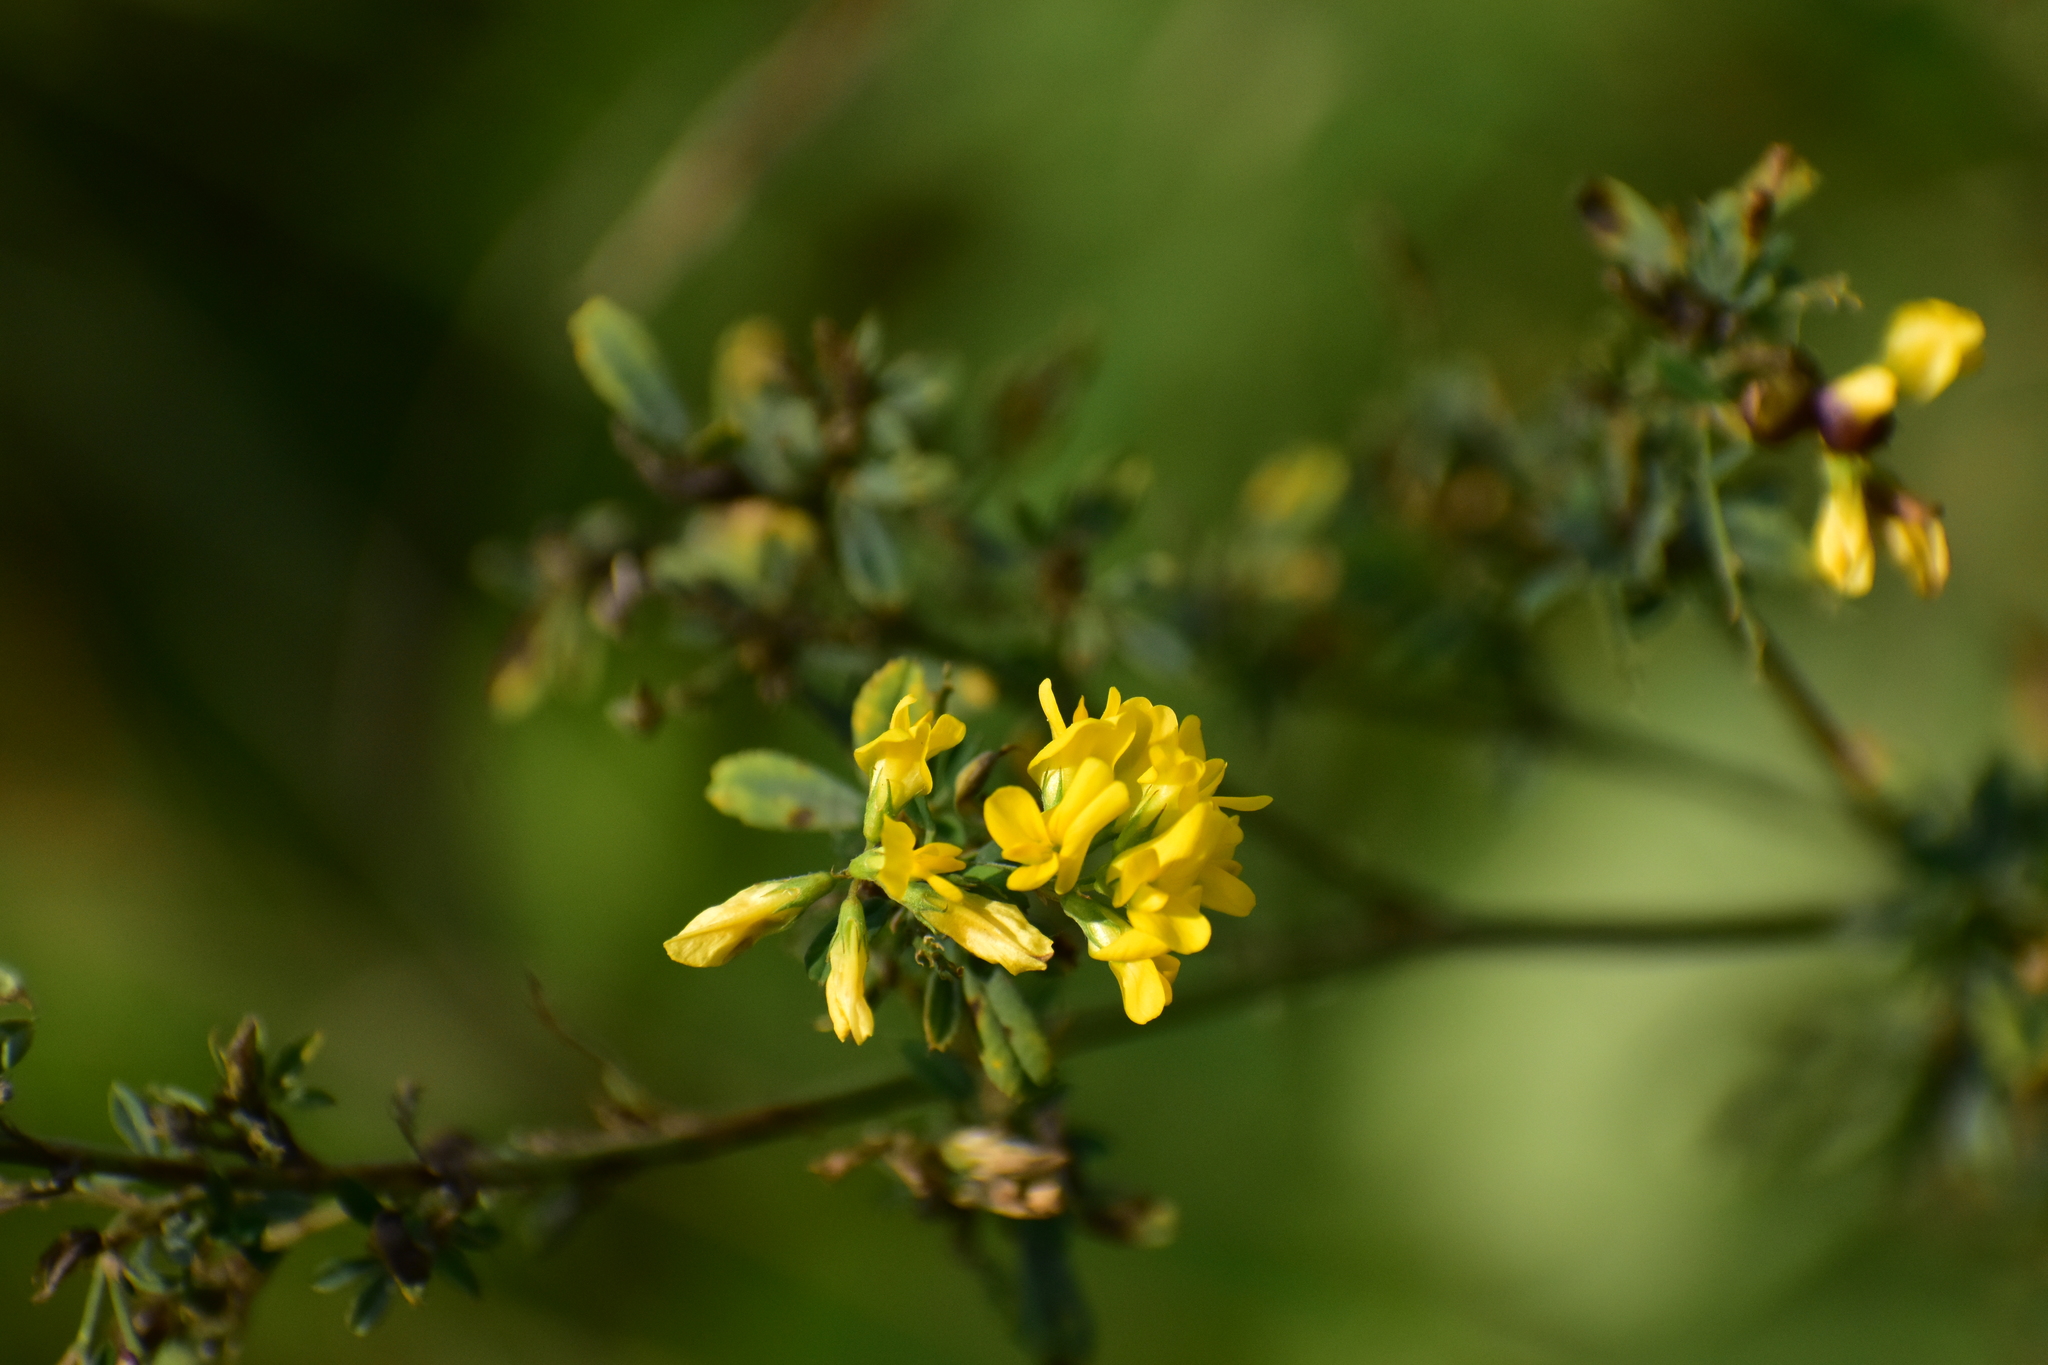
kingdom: Plantae
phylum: Tracheophyta
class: Magnoliopsida
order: Fabales
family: Fabaceae
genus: Medicago
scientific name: Medicago falcata
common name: Sickle medick
